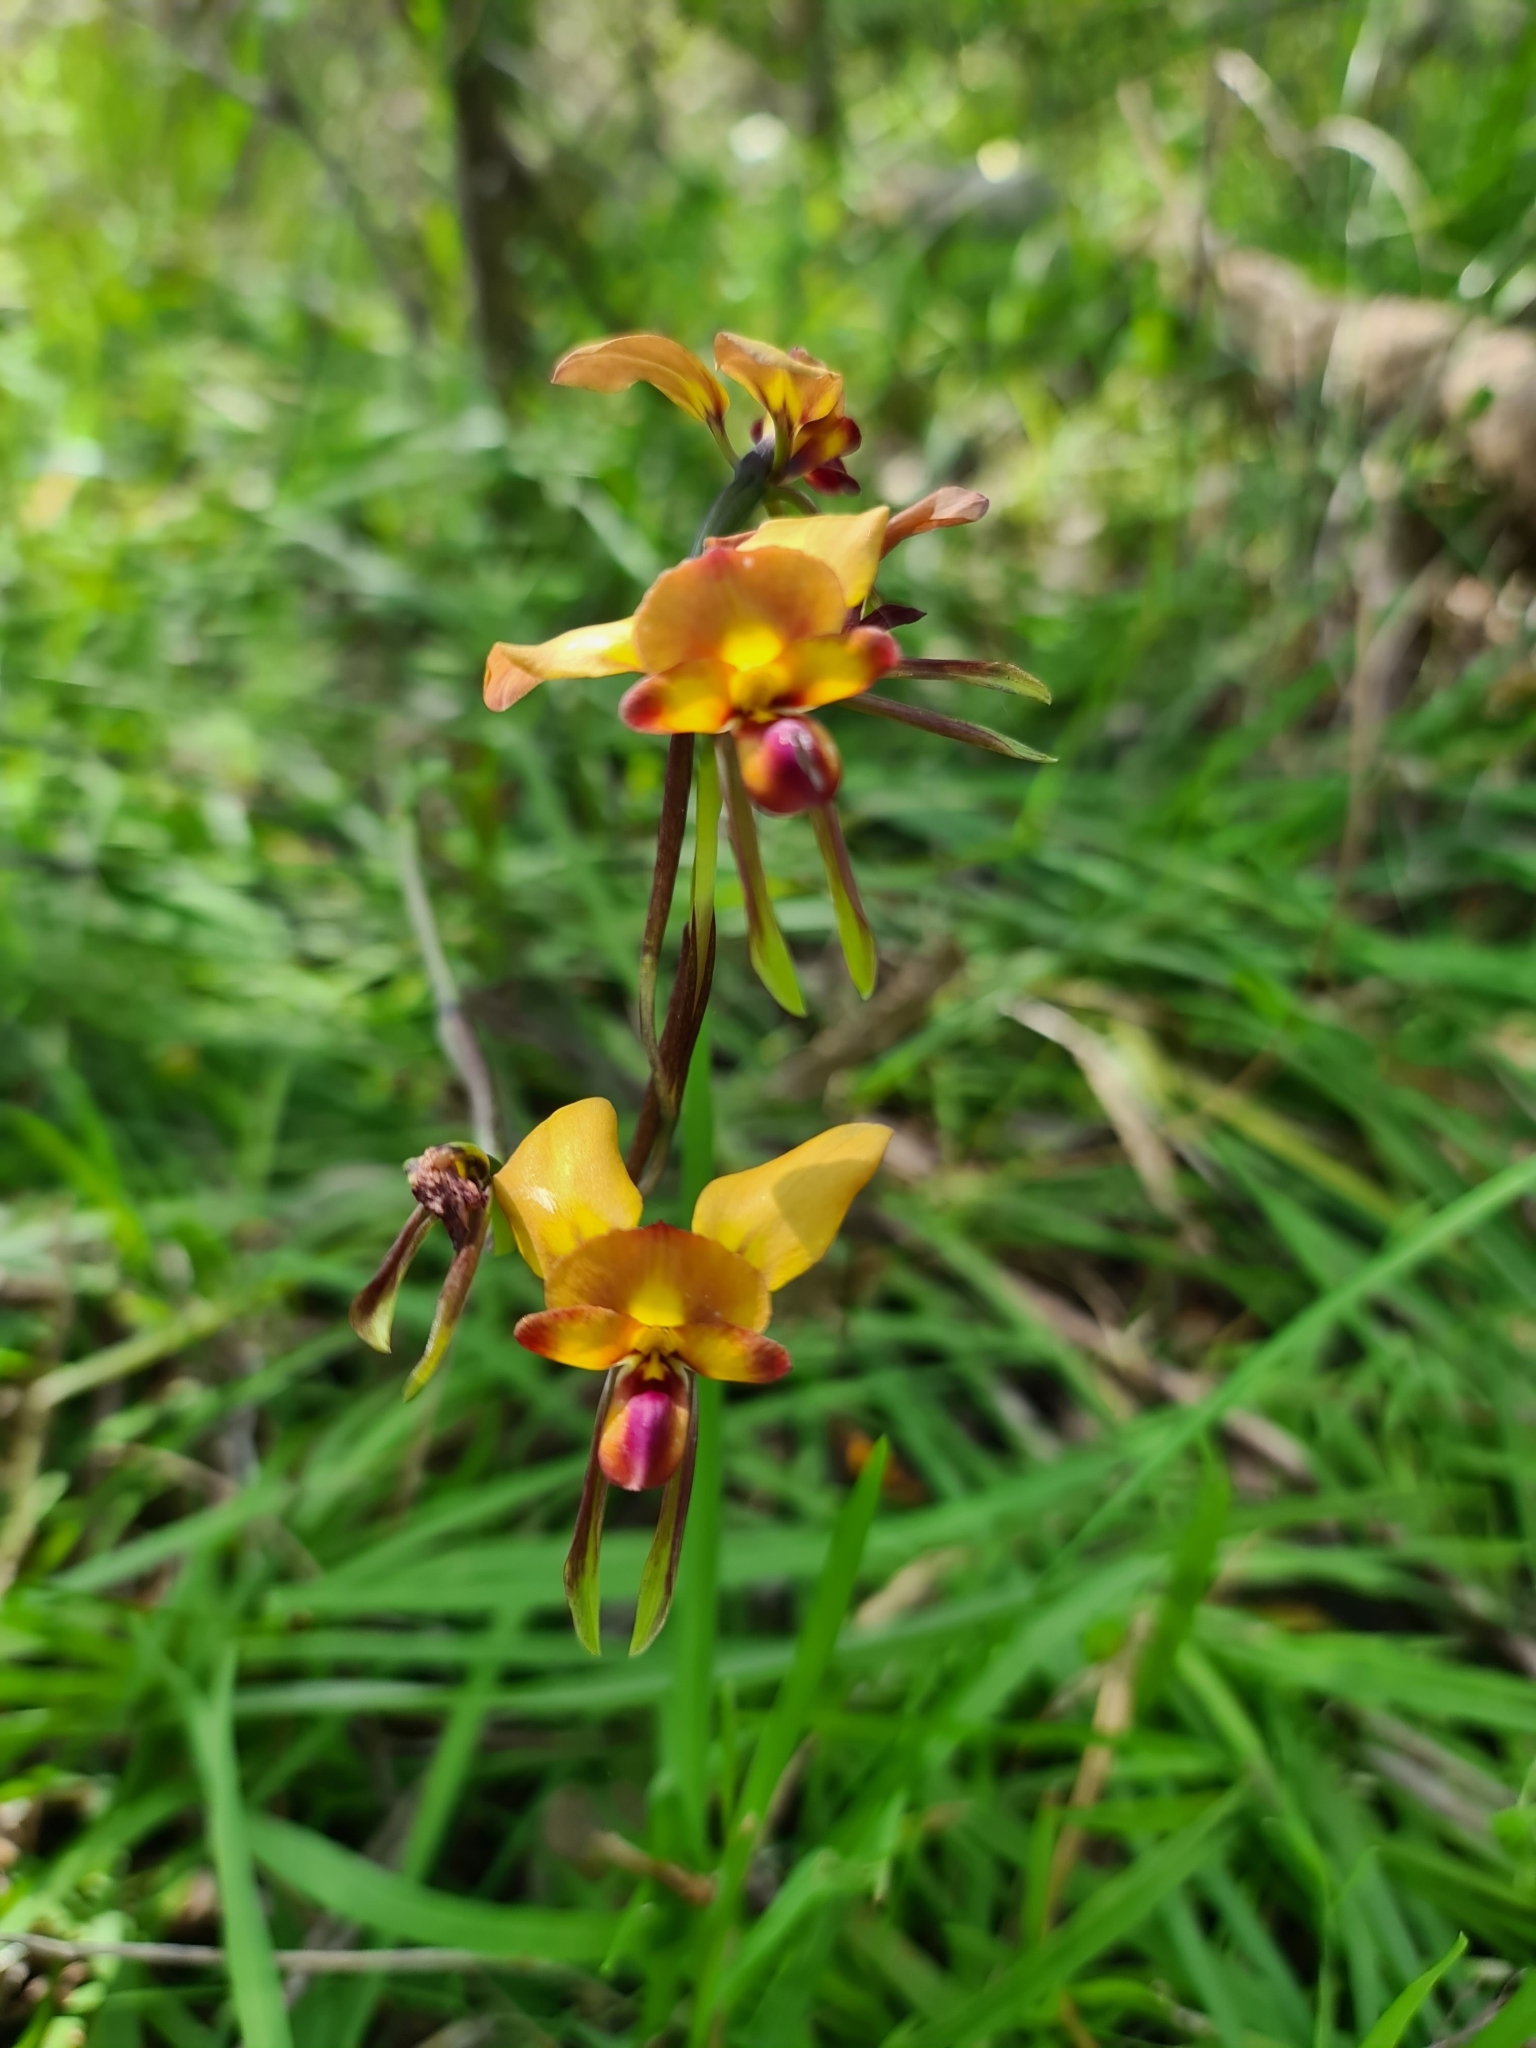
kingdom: Plantae
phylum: Tracheophyta
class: Liliopsida
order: Asparagales
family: Orchidaceae
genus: Diuris
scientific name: Diuris jonesii
